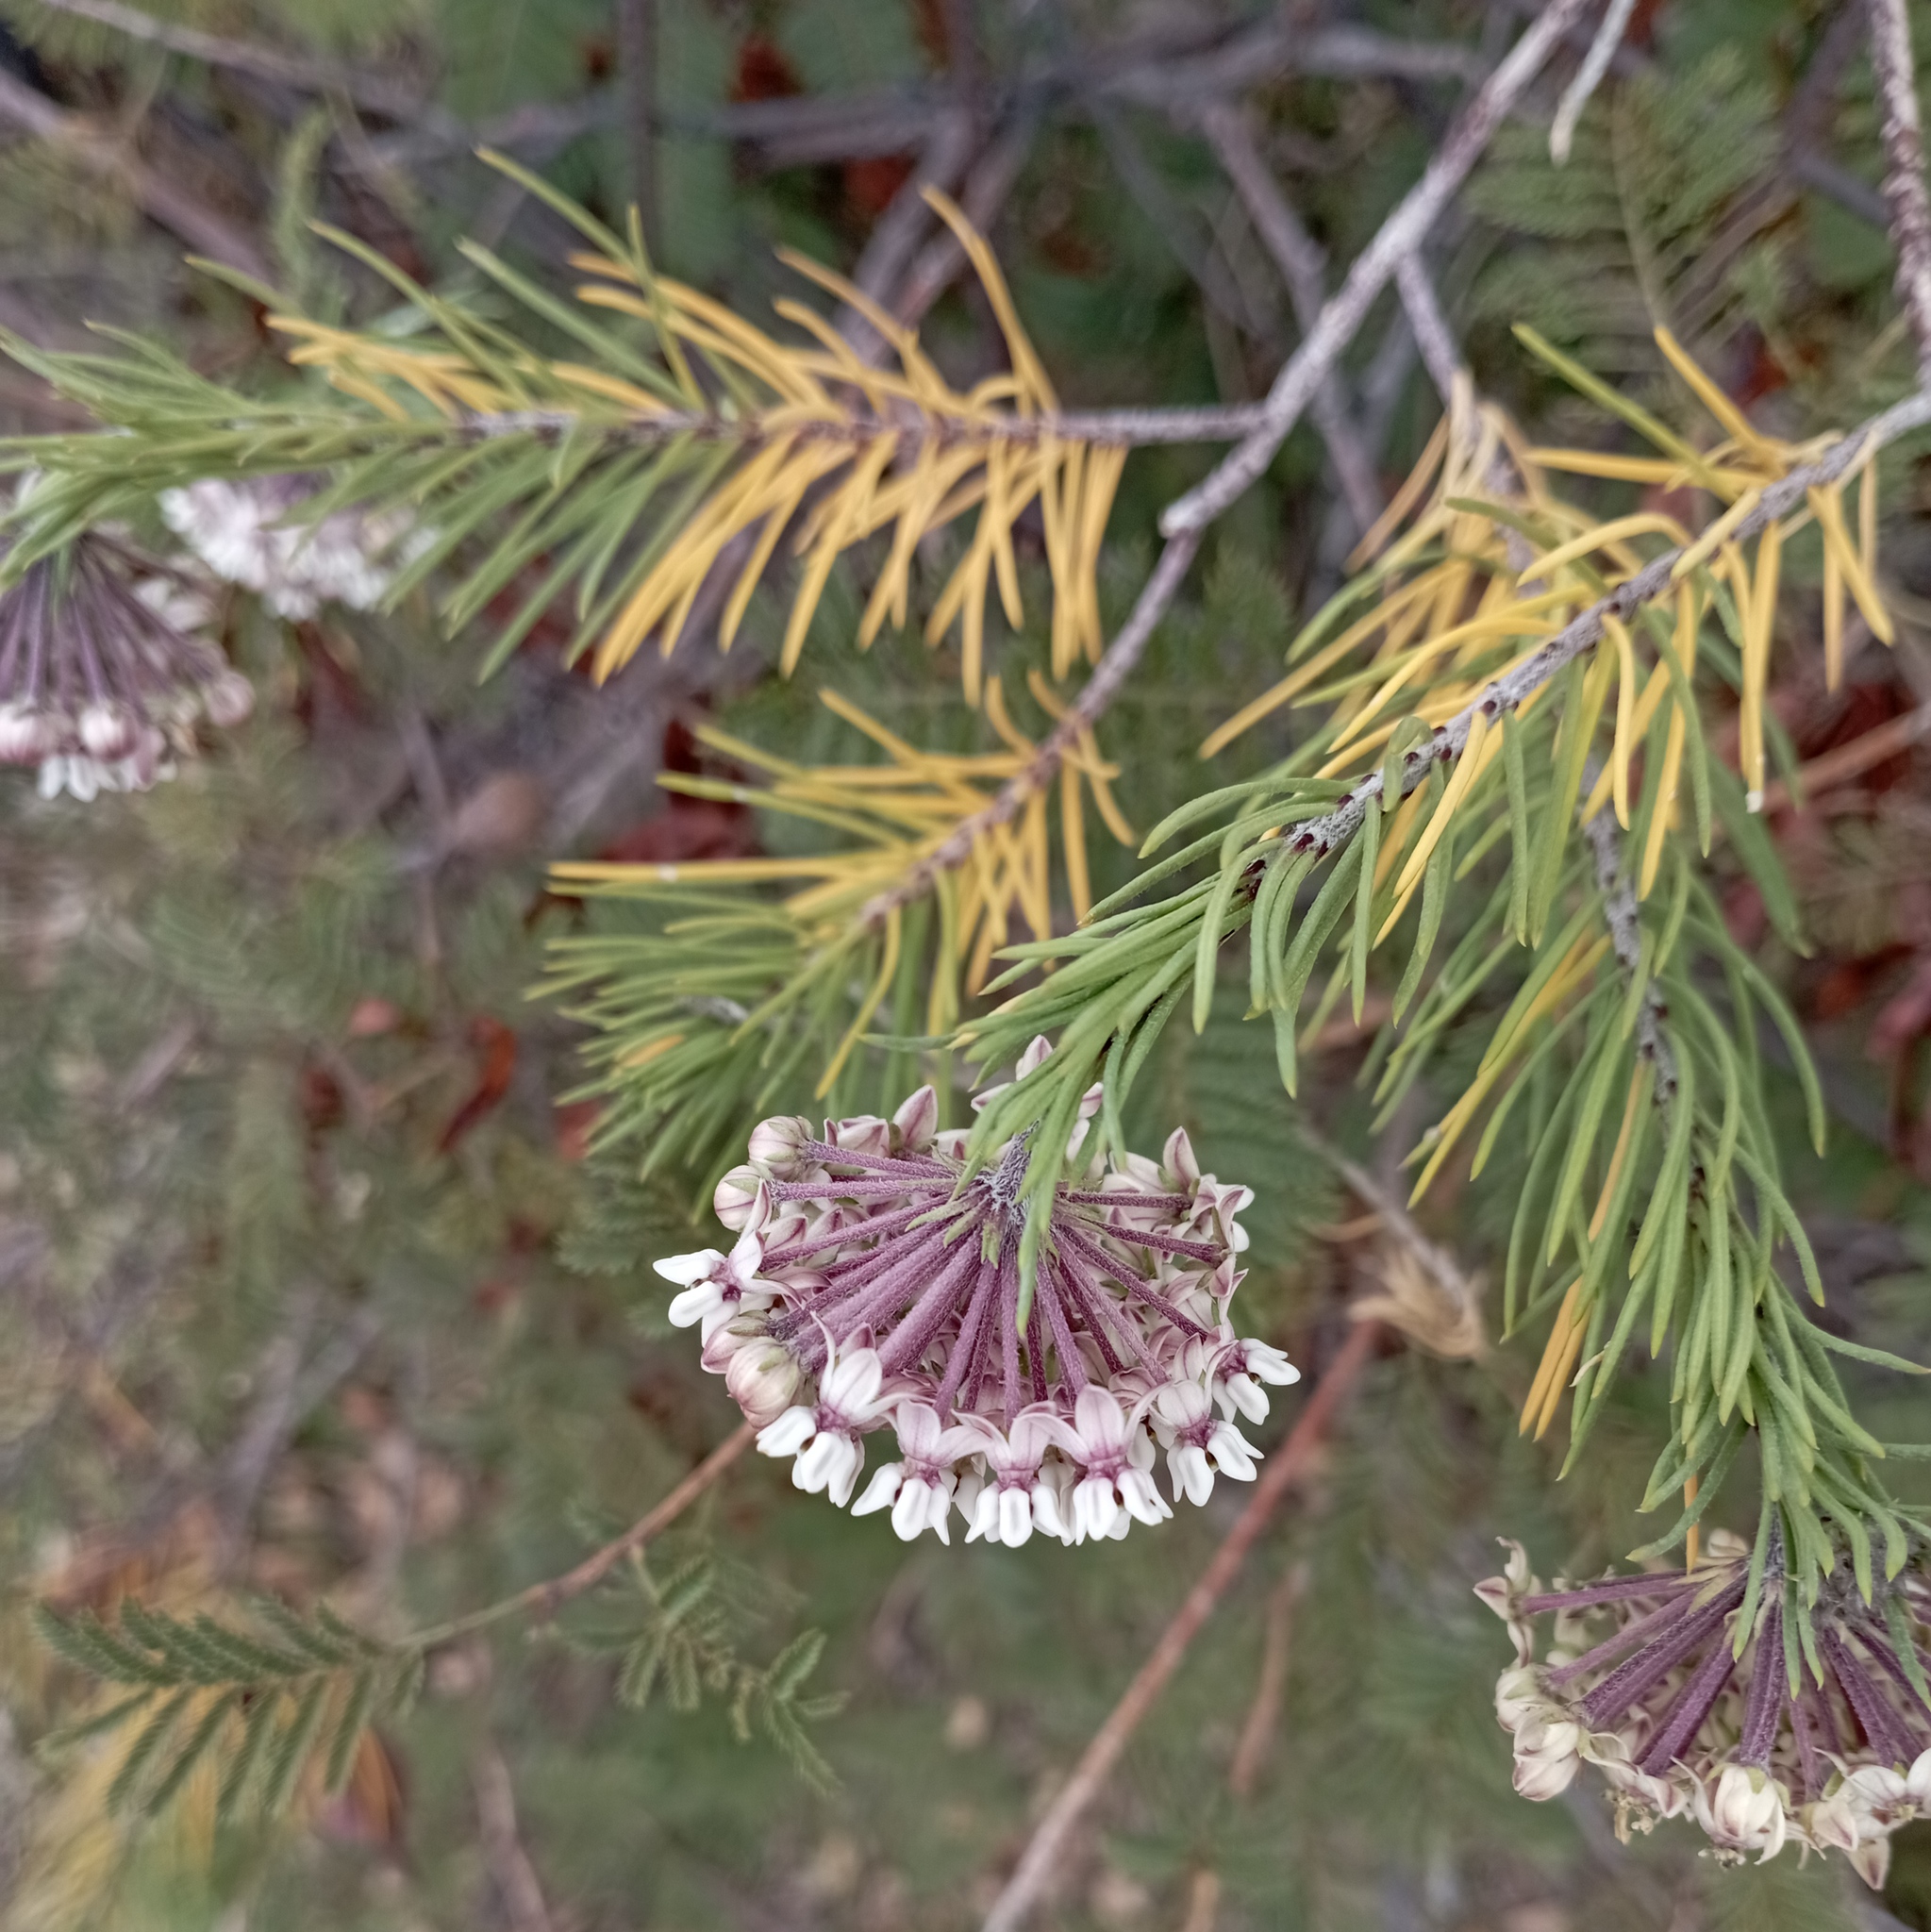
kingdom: Plantae
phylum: Tracheophyta
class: Magnoliopsida
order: Gentianales
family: Apocynaceae
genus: Asclepias
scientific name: Asclepias linaria
